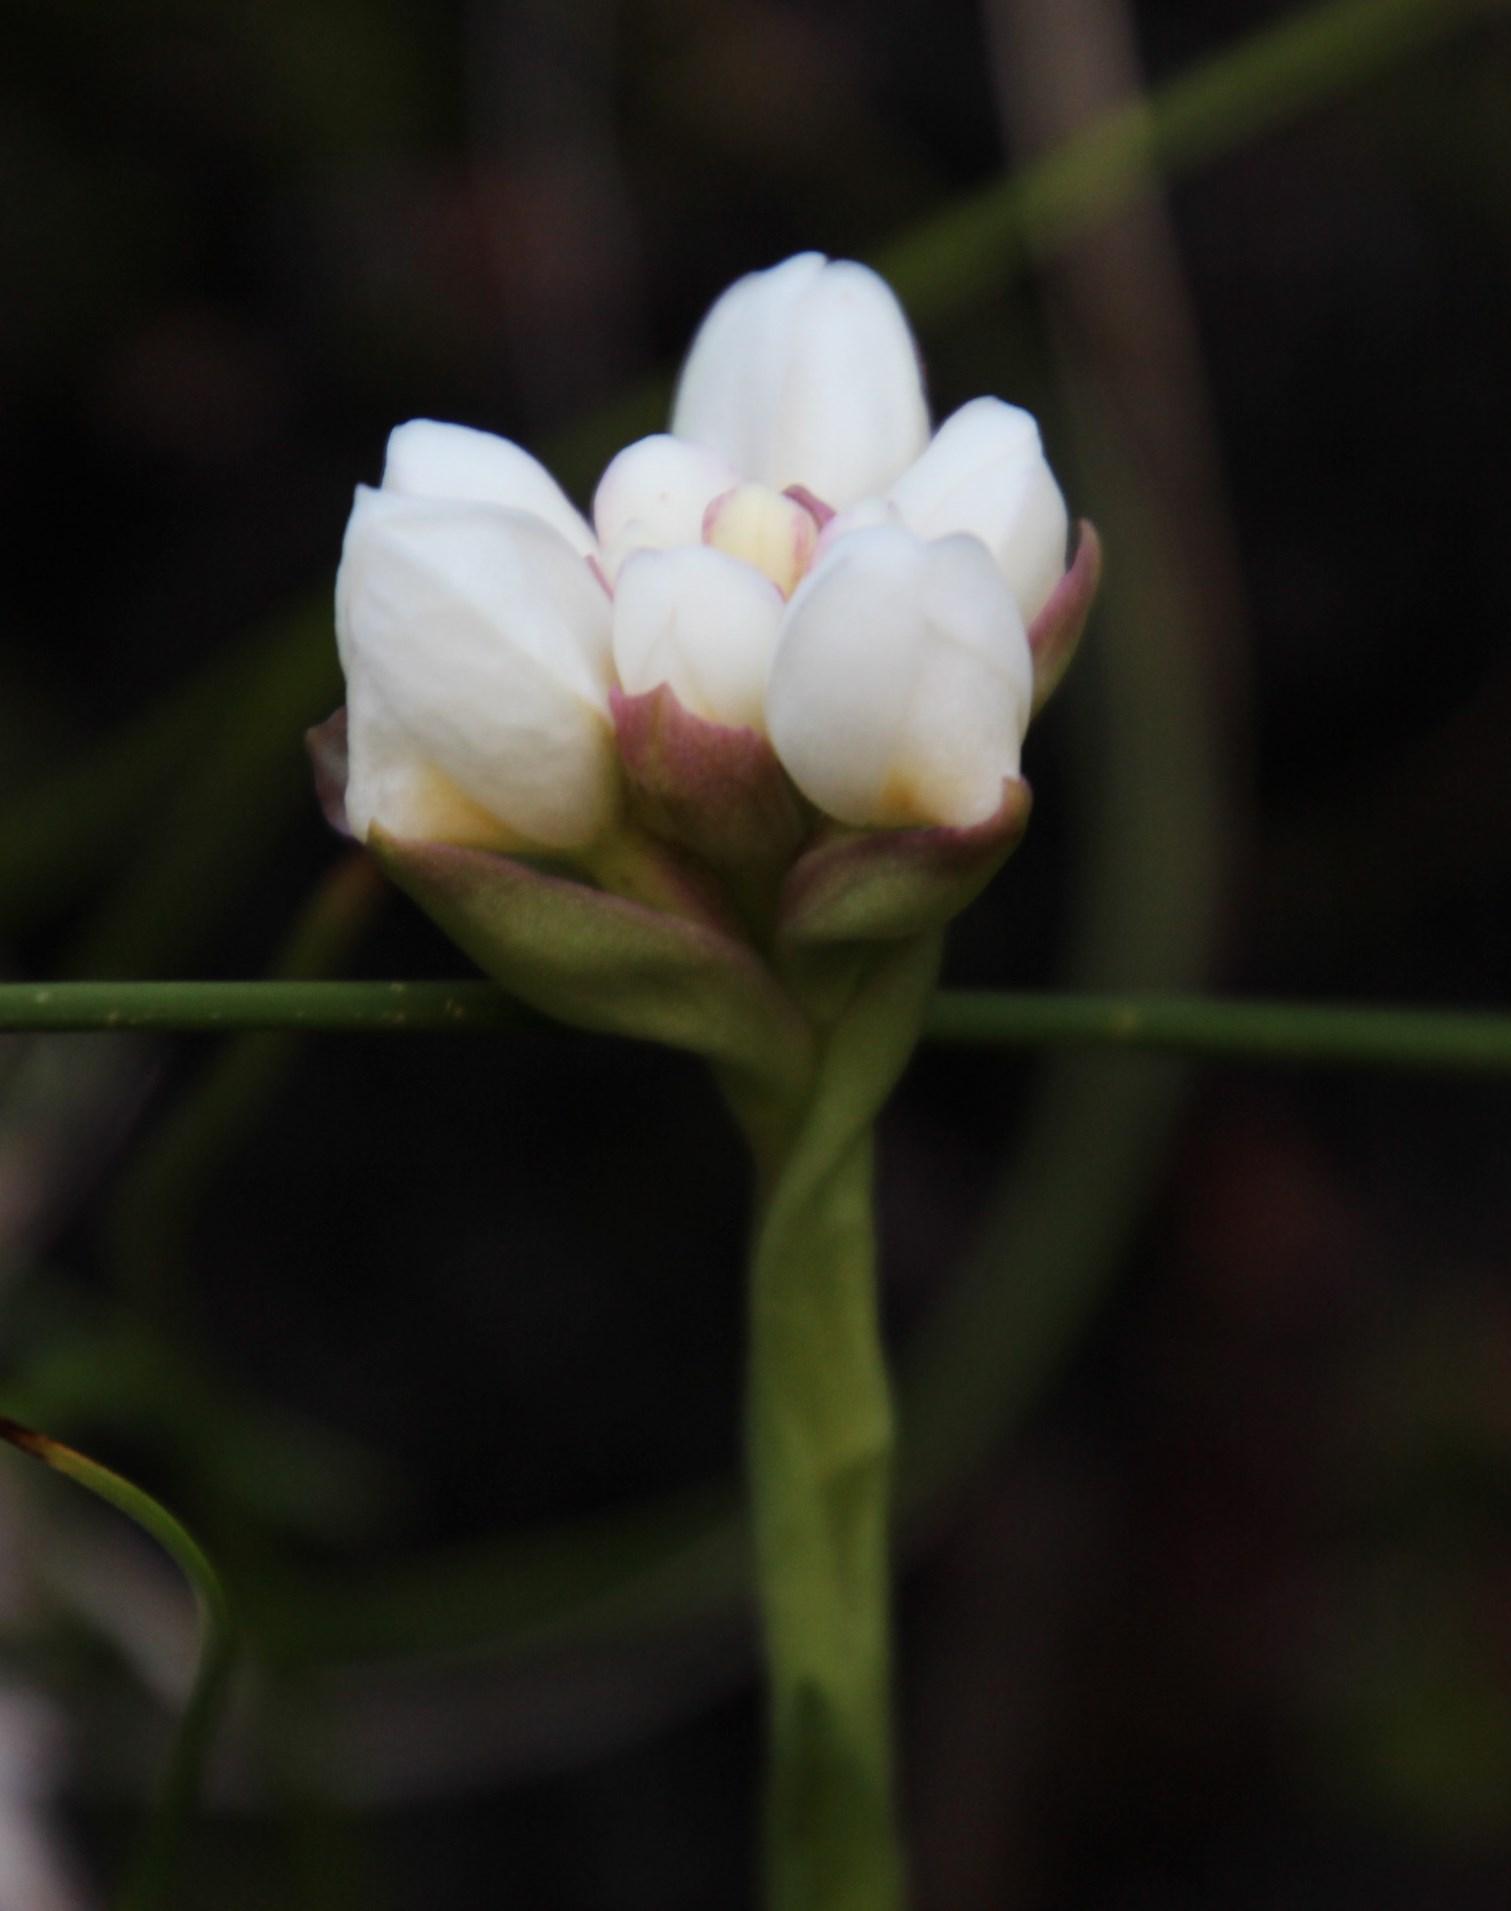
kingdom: Plantae
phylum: Tracheophyta
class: Liliopsida
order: Asparagales
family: Orchidaceae
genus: Disa
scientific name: Disa richardiana
